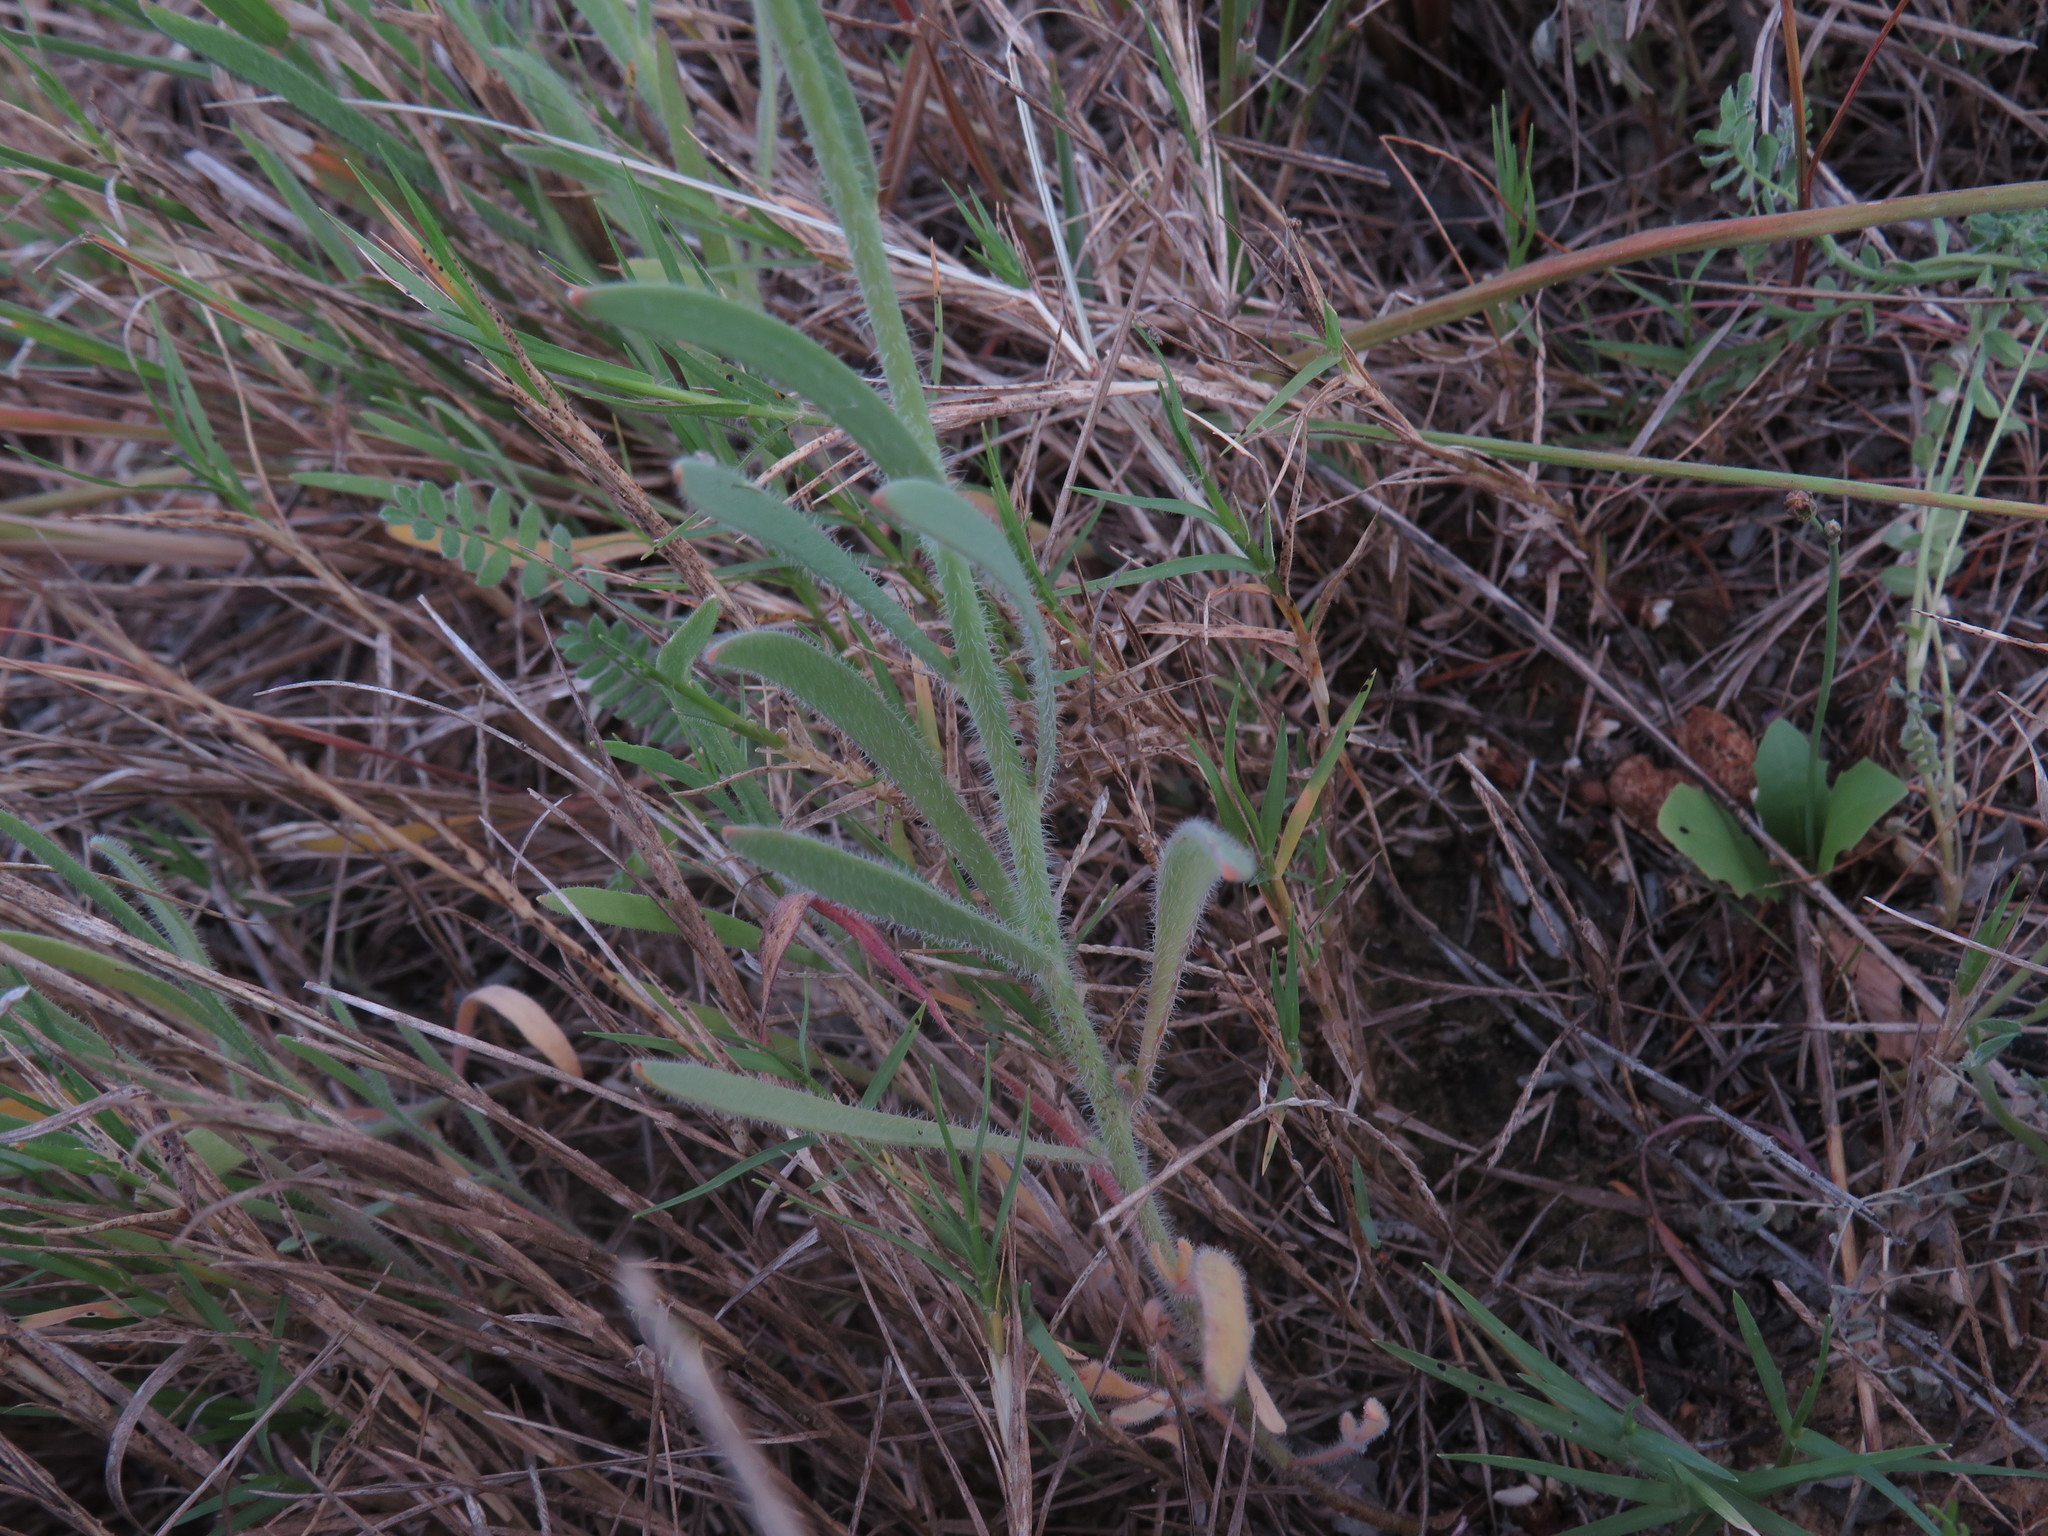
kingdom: Plantae
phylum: Tracheophyta
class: Magnoliopsida
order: Brassicales
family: Brassicaceae
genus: Heliophila
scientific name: Heliophila africana
